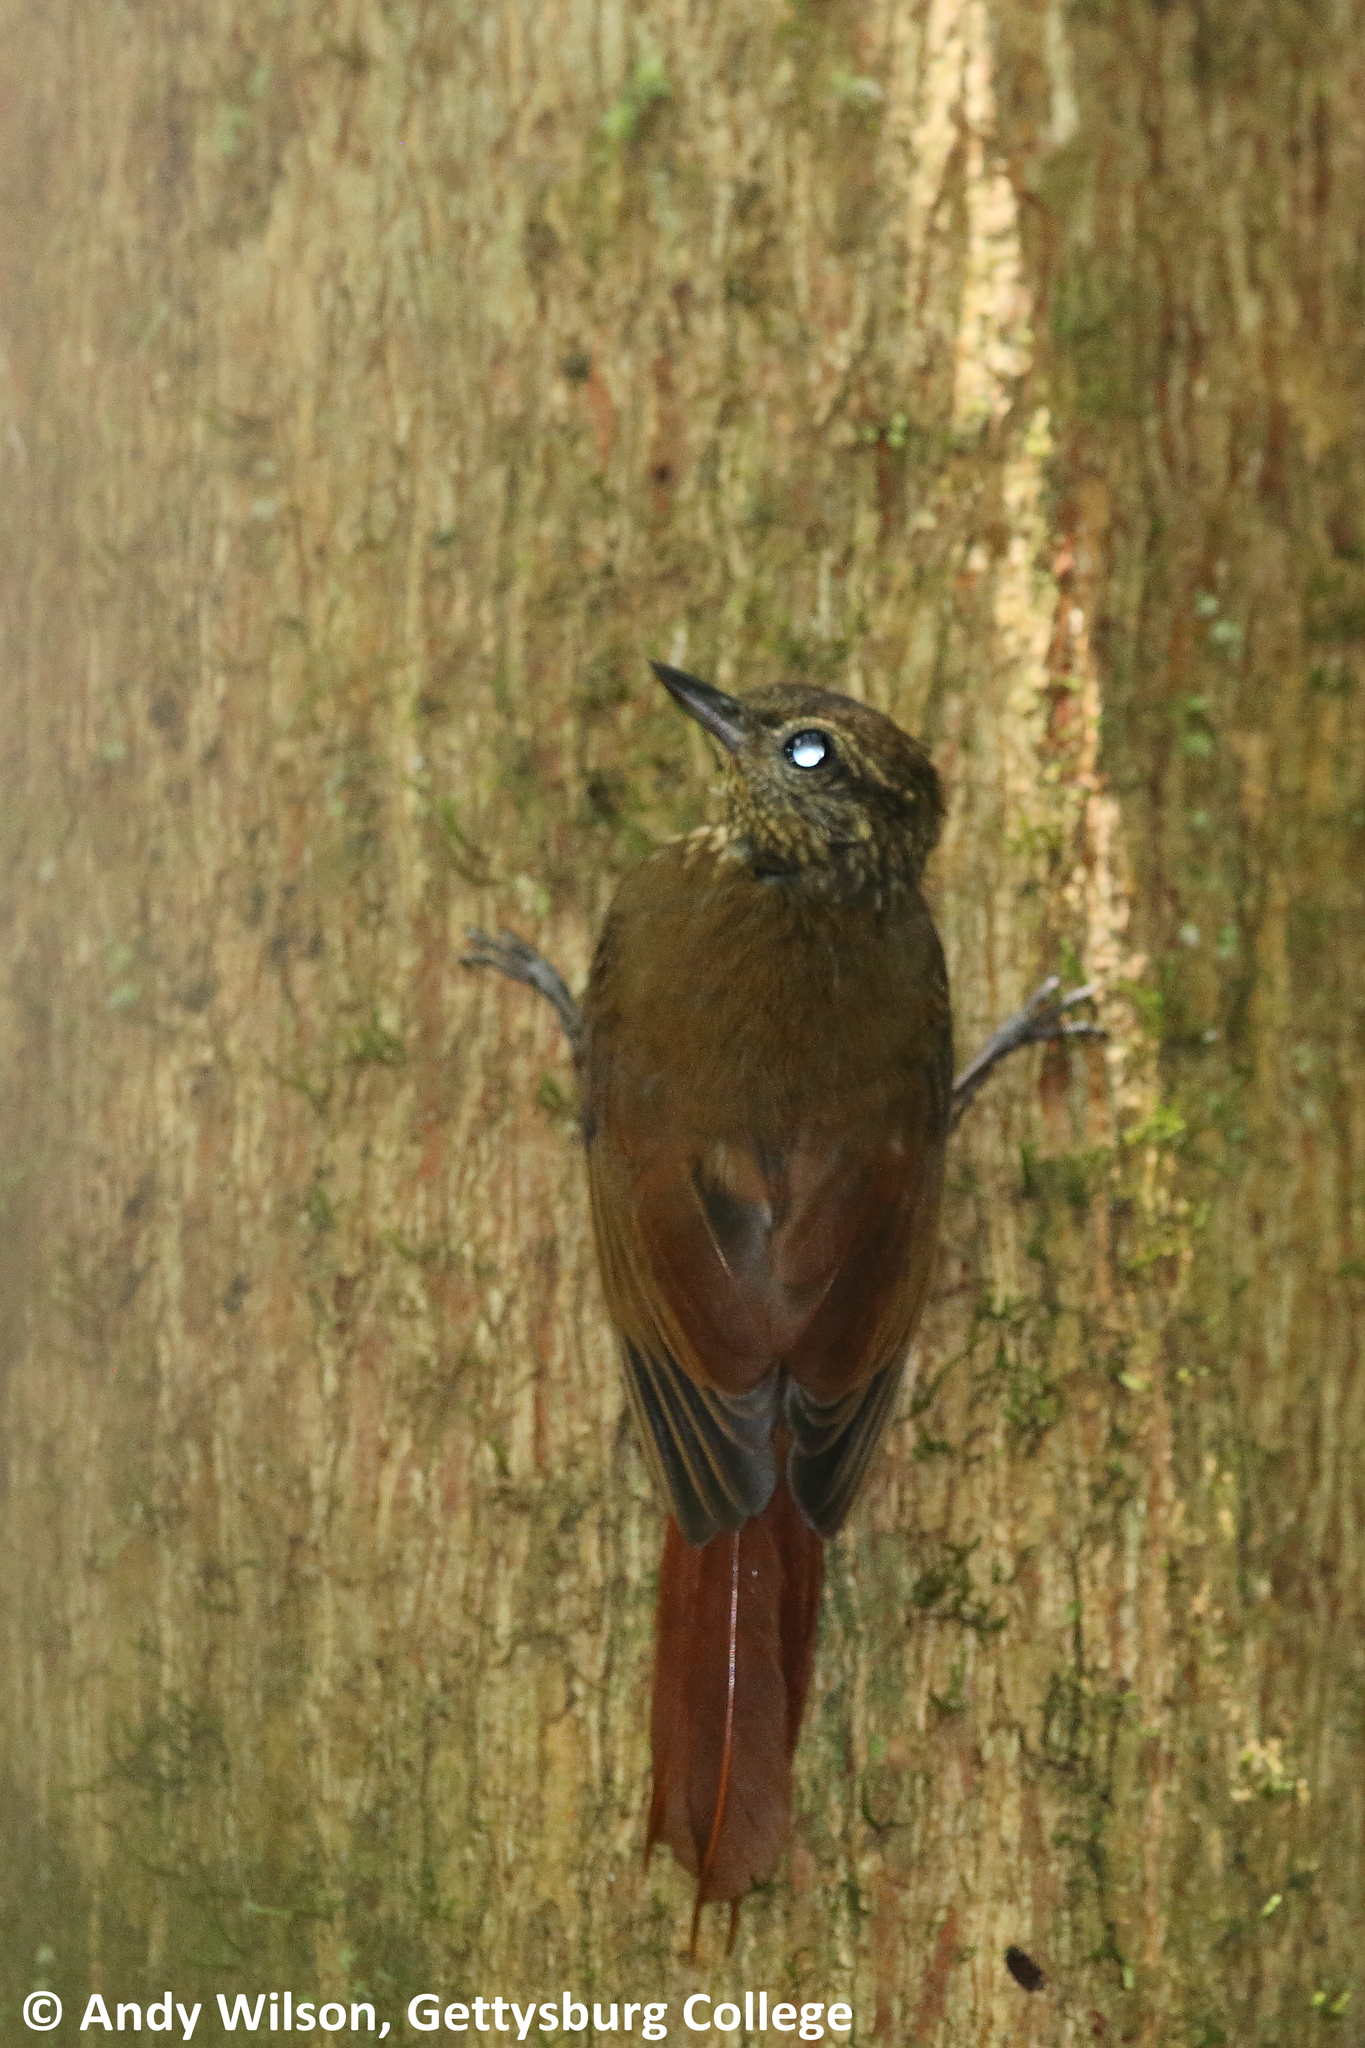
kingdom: Animalia
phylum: Chordata
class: Aves
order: Passeriformes
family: Furnariidae
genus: Glyphorynchus
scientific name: Glyphorynchus spirurus
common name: Wedge-billed woodcreeper
